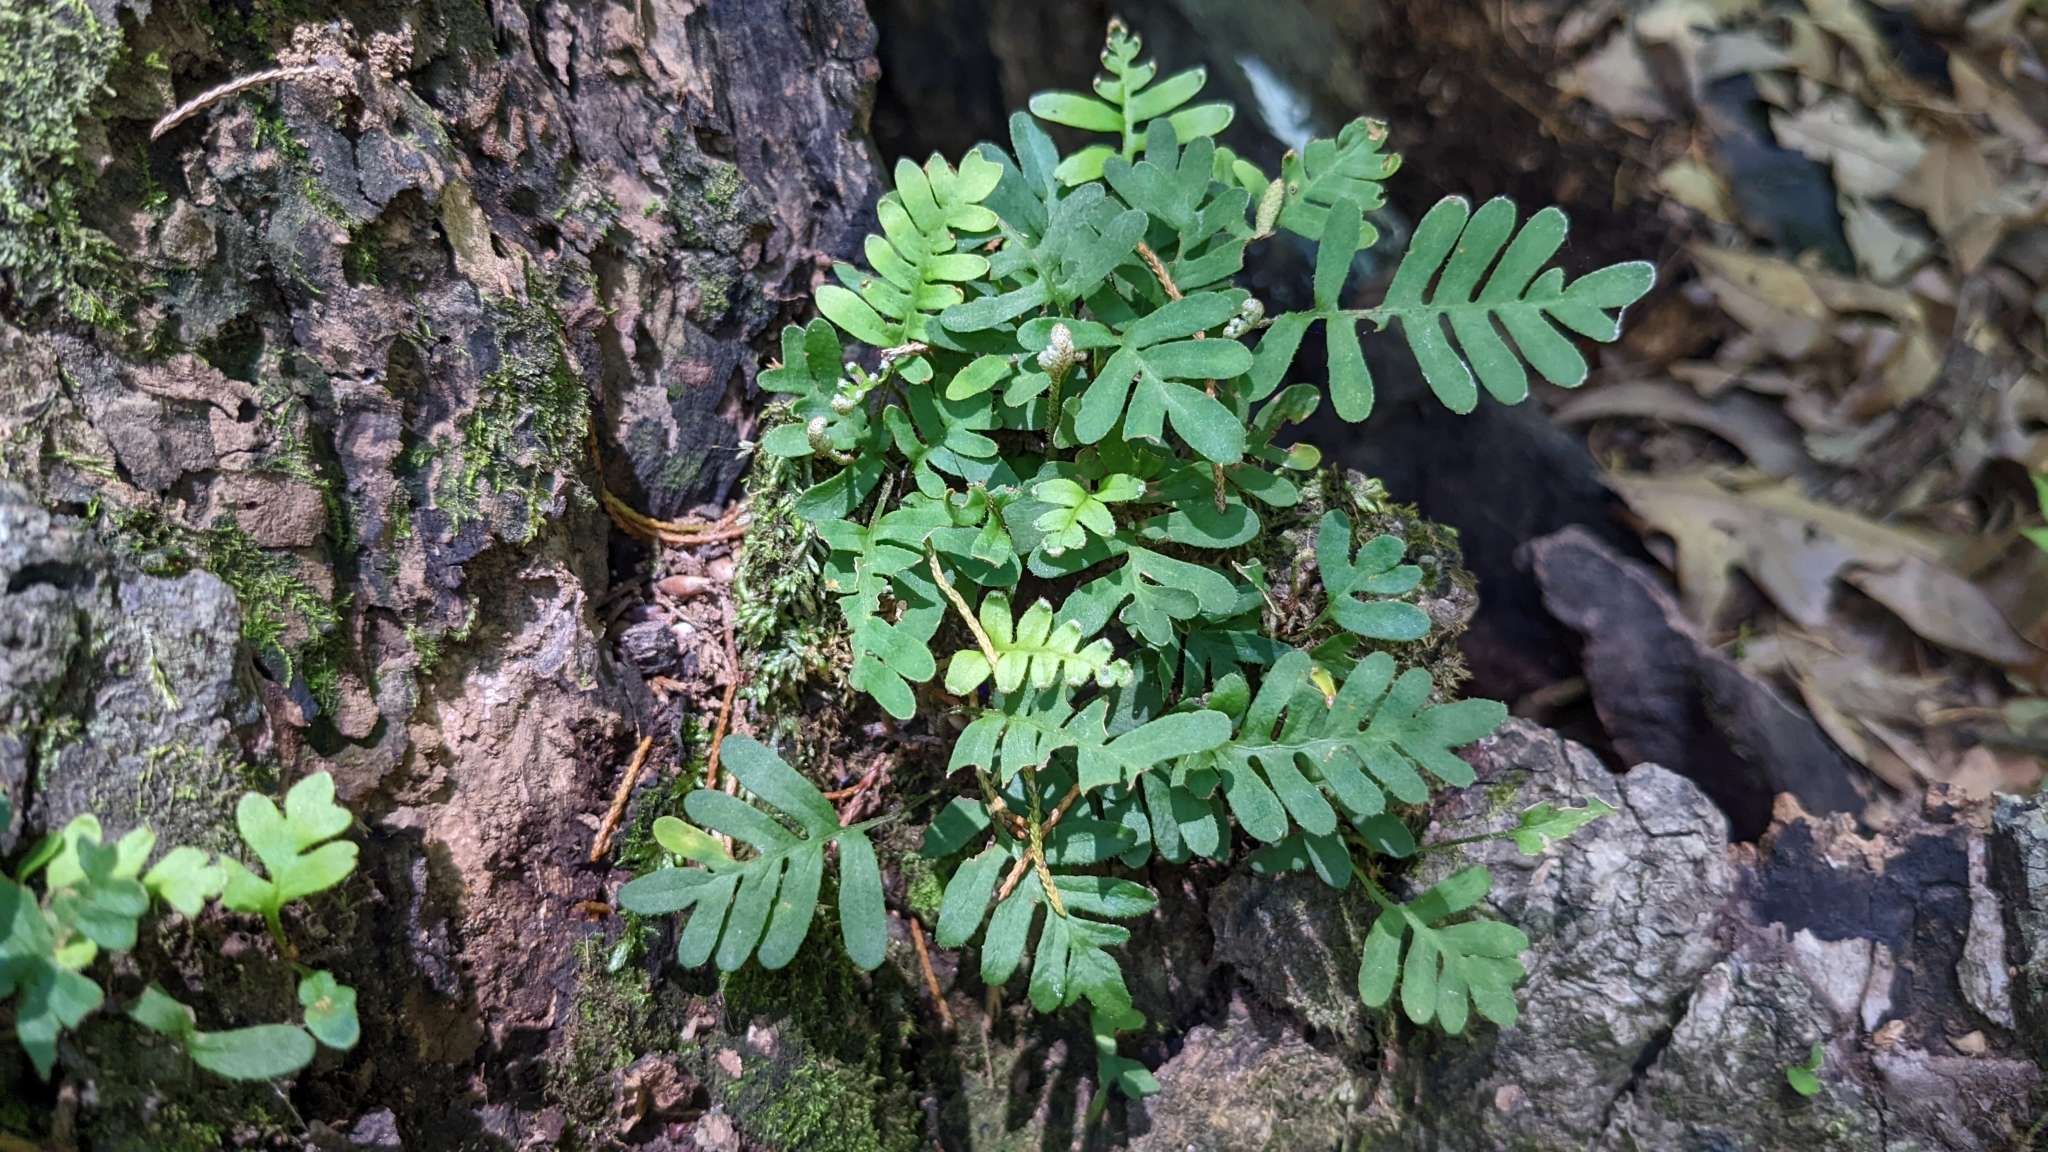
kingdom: Plantae
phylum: Tracheophyta
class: Polypodiopsida
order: Polypodiales
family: Polypodiaceae
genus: Pleopeltis
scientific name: Pleopeltis michauxiana
